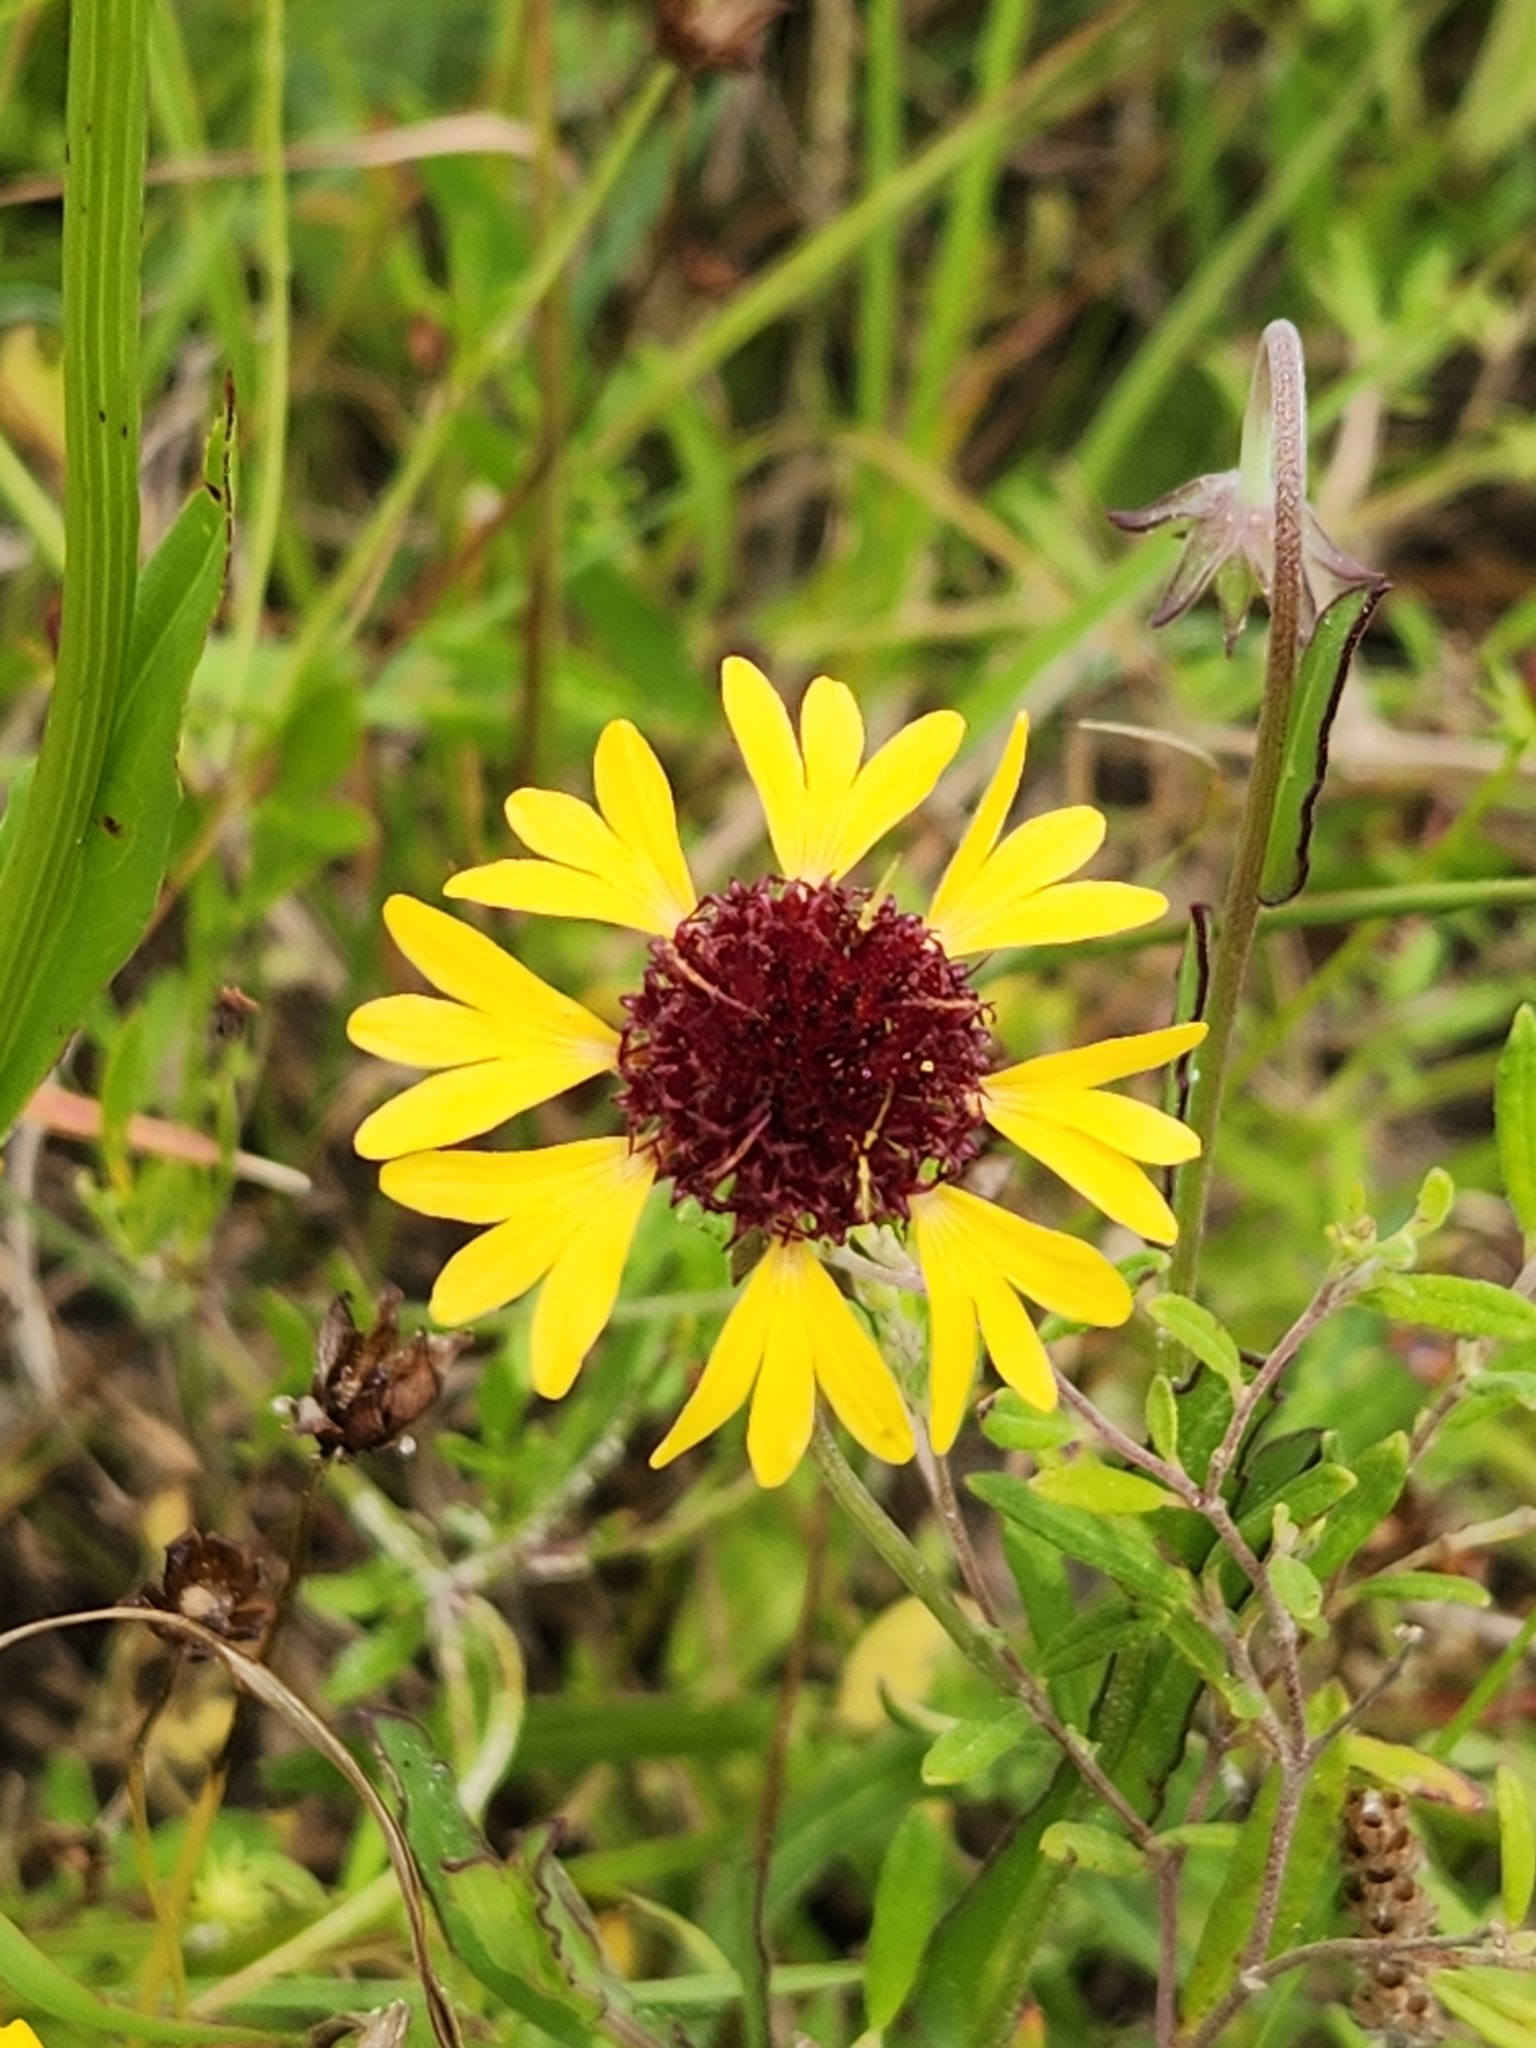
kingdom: Plantae
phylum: Tracheophyta
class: Magnoliopsida
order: Asterales
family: Asteraceae
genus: Gaillardia
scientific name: Gaillardia aestivalis
